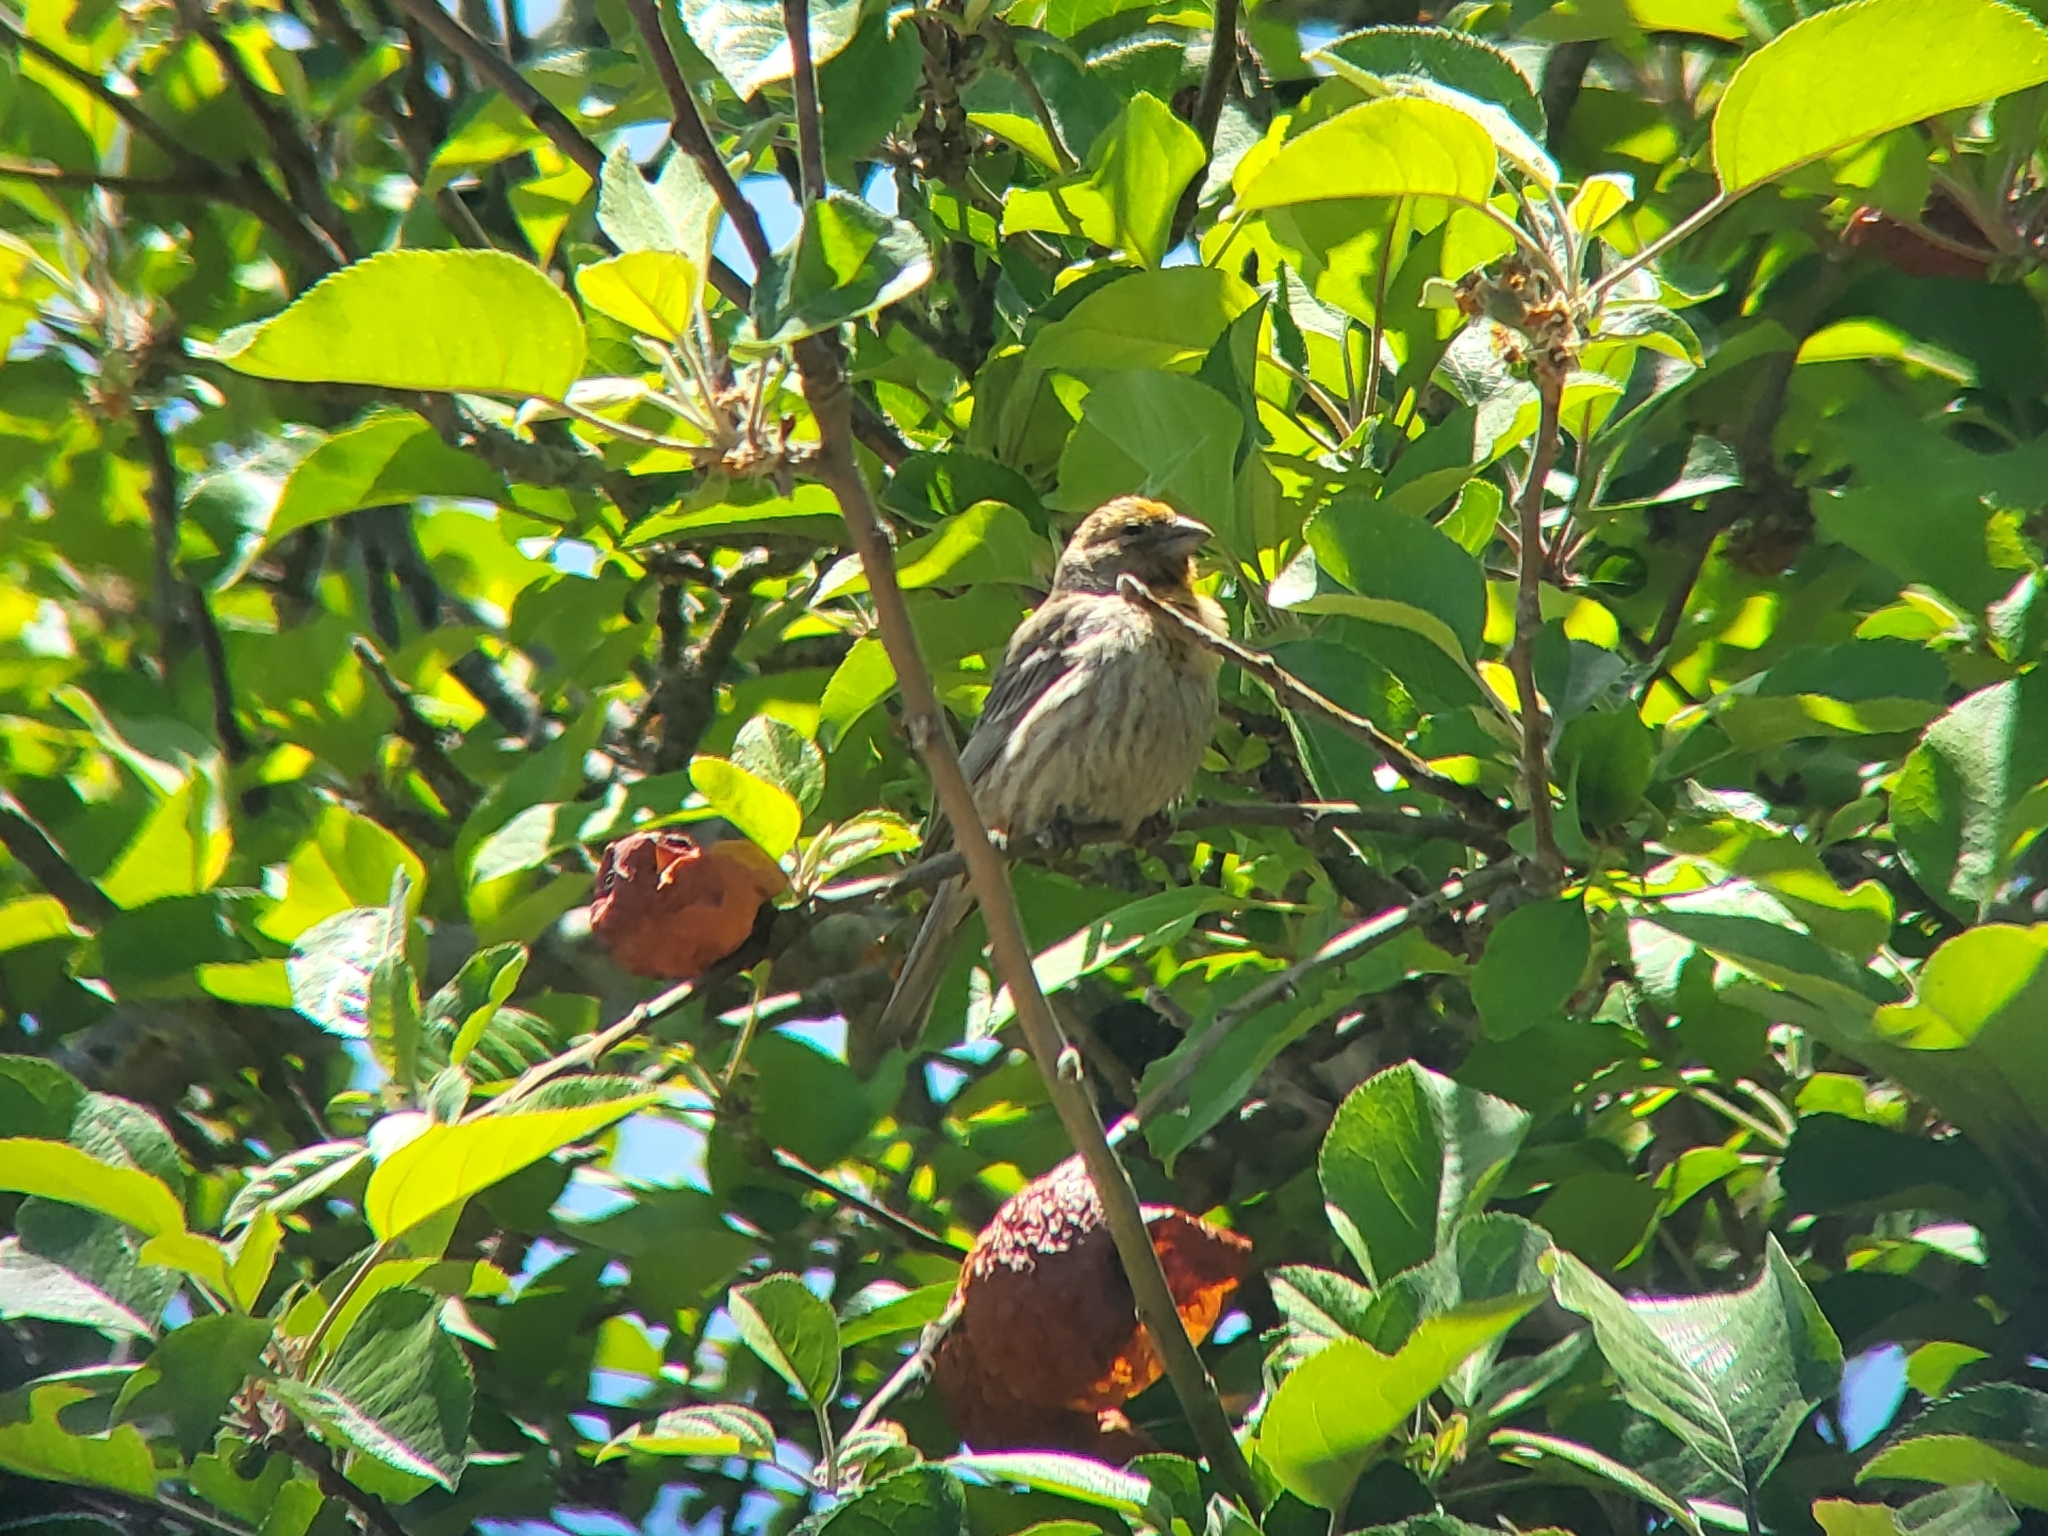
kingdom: Animalia
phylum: Chordata
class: Aves
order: Passeriformes
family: Fringillidae
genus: Haemorhous
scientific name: Haemorhous mexicanus
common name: House finch
